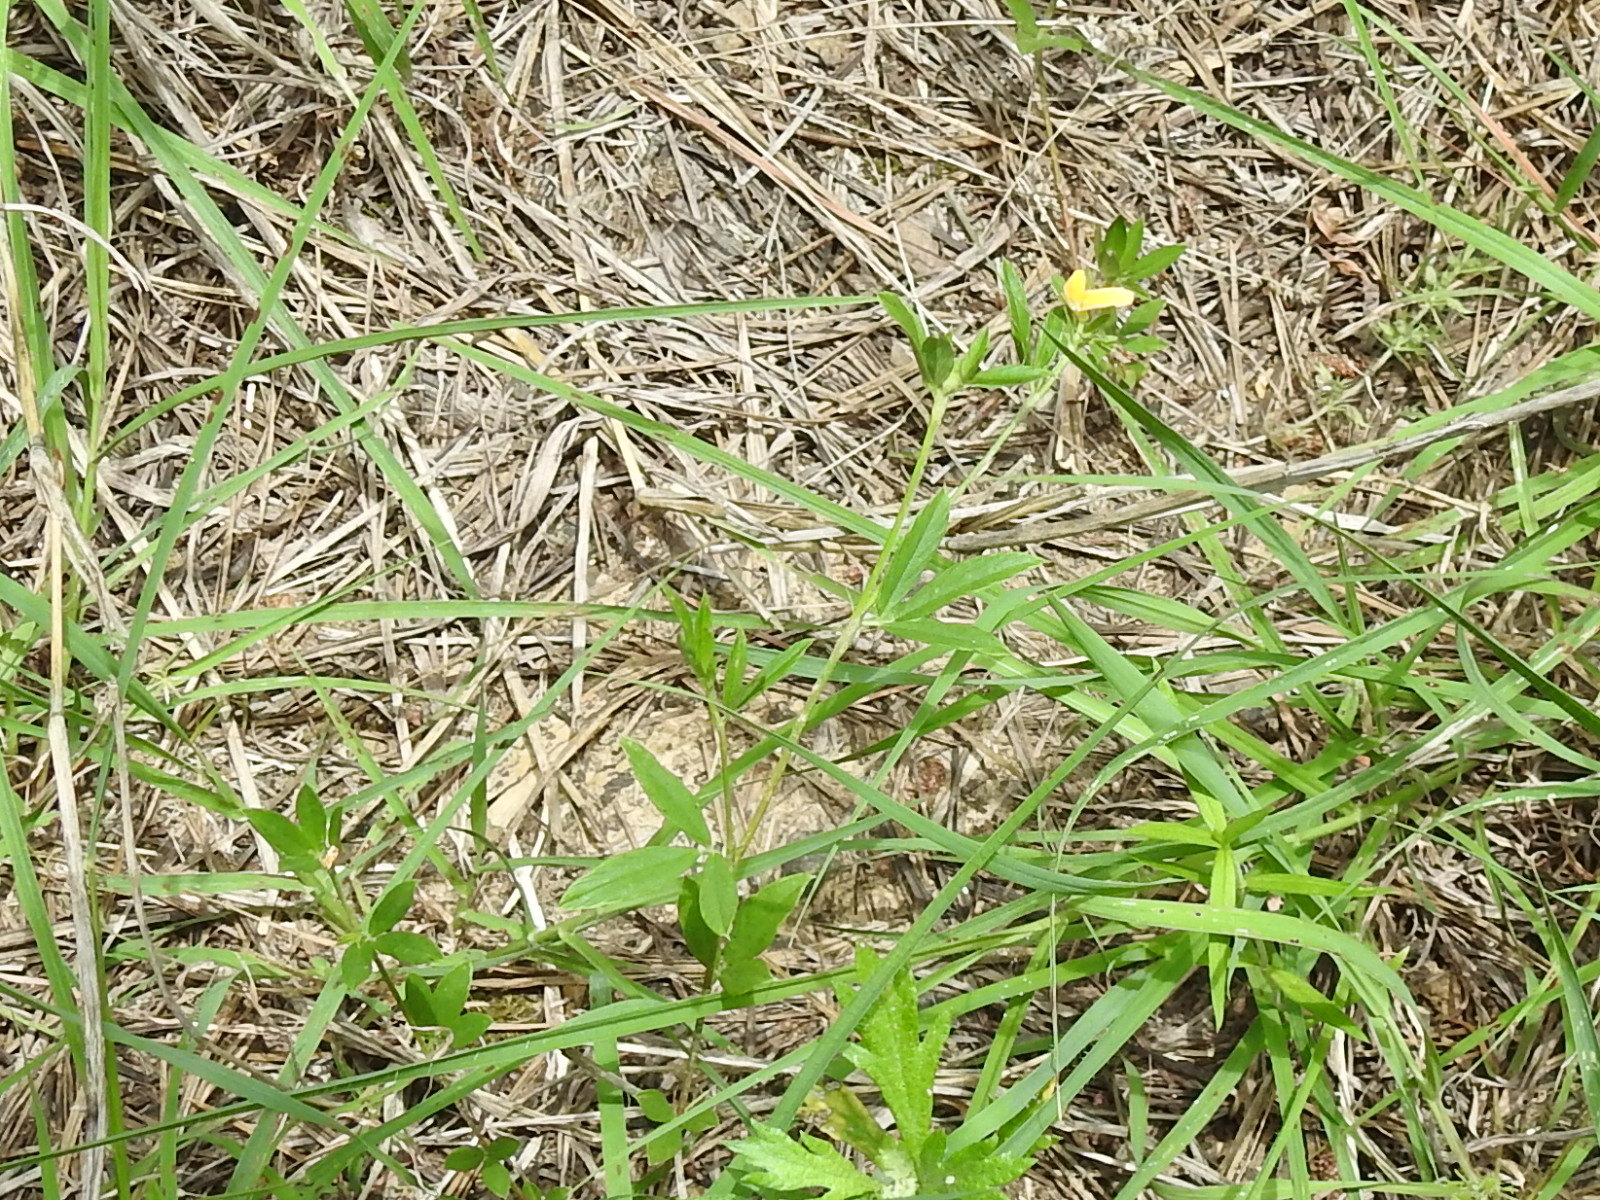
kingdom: Plantae
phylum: Tracheophyta
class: Magnoliopsida
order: Fabales
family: Fabaceae
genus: Stylosanthes
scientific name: Stylosanthes biflora
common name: Two-flower pencil-flower
